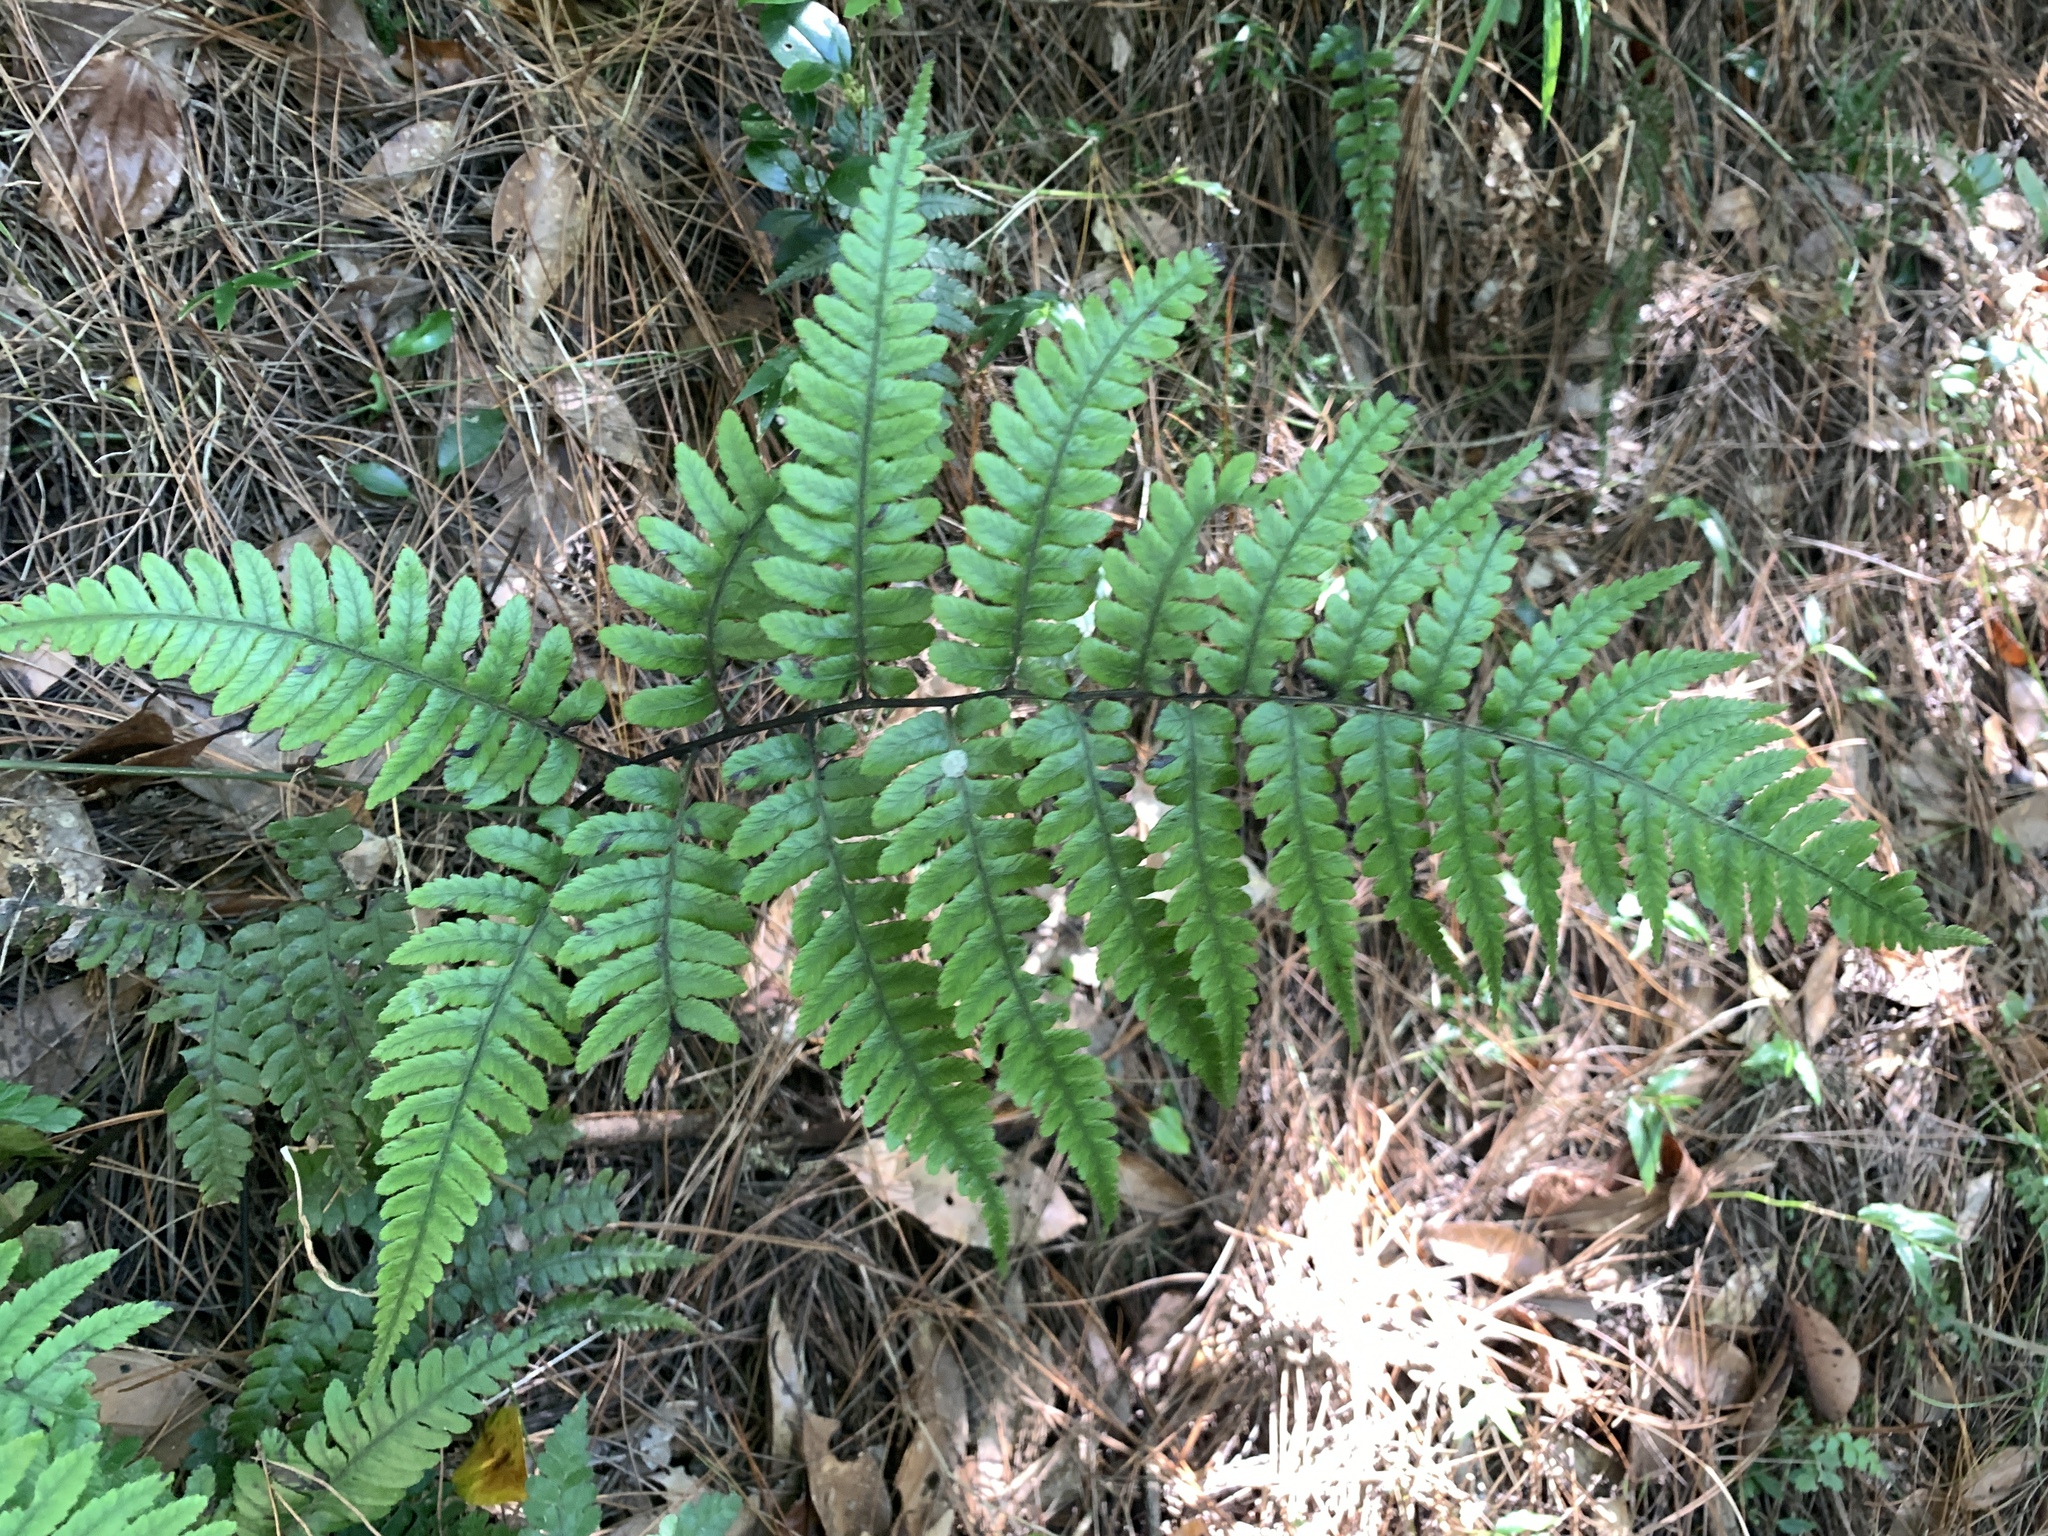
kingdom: Plantae
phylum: Tracheophyta
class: Polypodiopsida
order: Polypodiales
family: Athyriaceae
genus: Diplazium
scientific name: Diplazium petri
